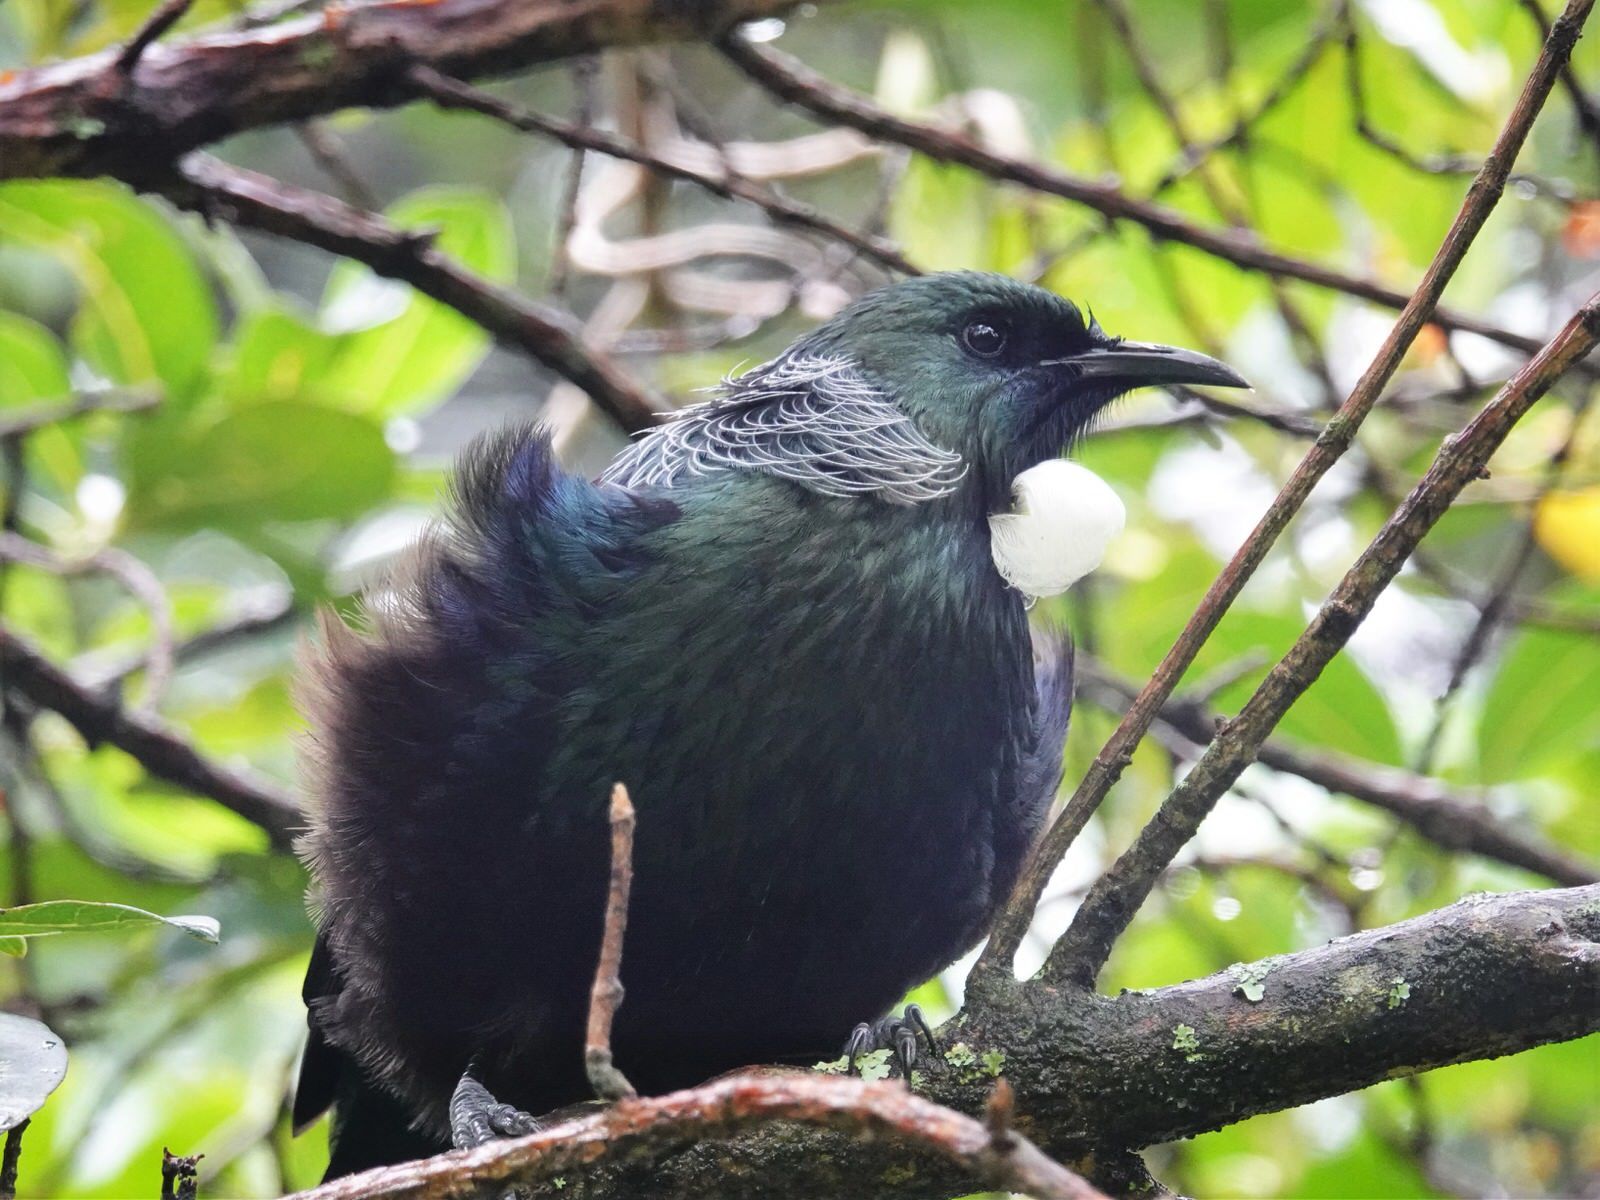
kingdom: Animalia
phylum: Chordata
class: Aves
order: Passeriformes
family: Meliphagidae
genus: Prosthemadera
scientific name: Prosthemadera novaeseelandiae
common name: Tui
